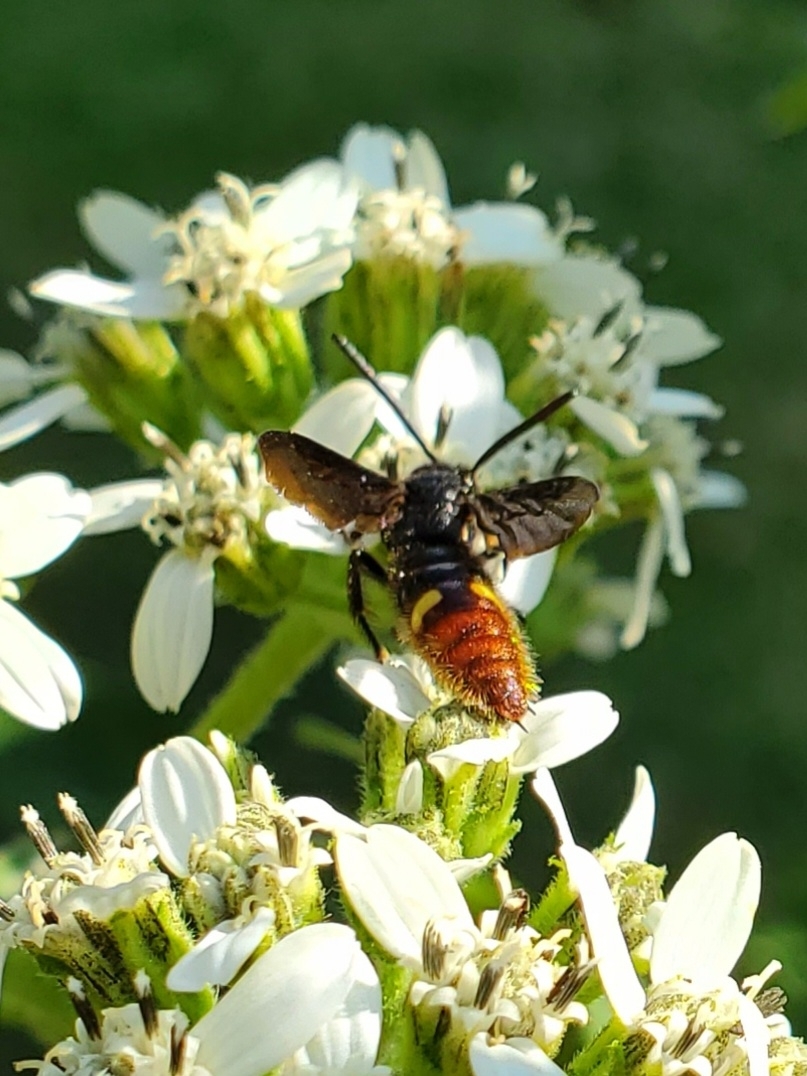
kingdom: Animalia
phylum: Arthropoda
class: Insecta
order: Hymenoptera
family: Scoliidae
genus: Scolia
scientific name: Scolia dubia
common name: Blue-winged scoliid wasp
